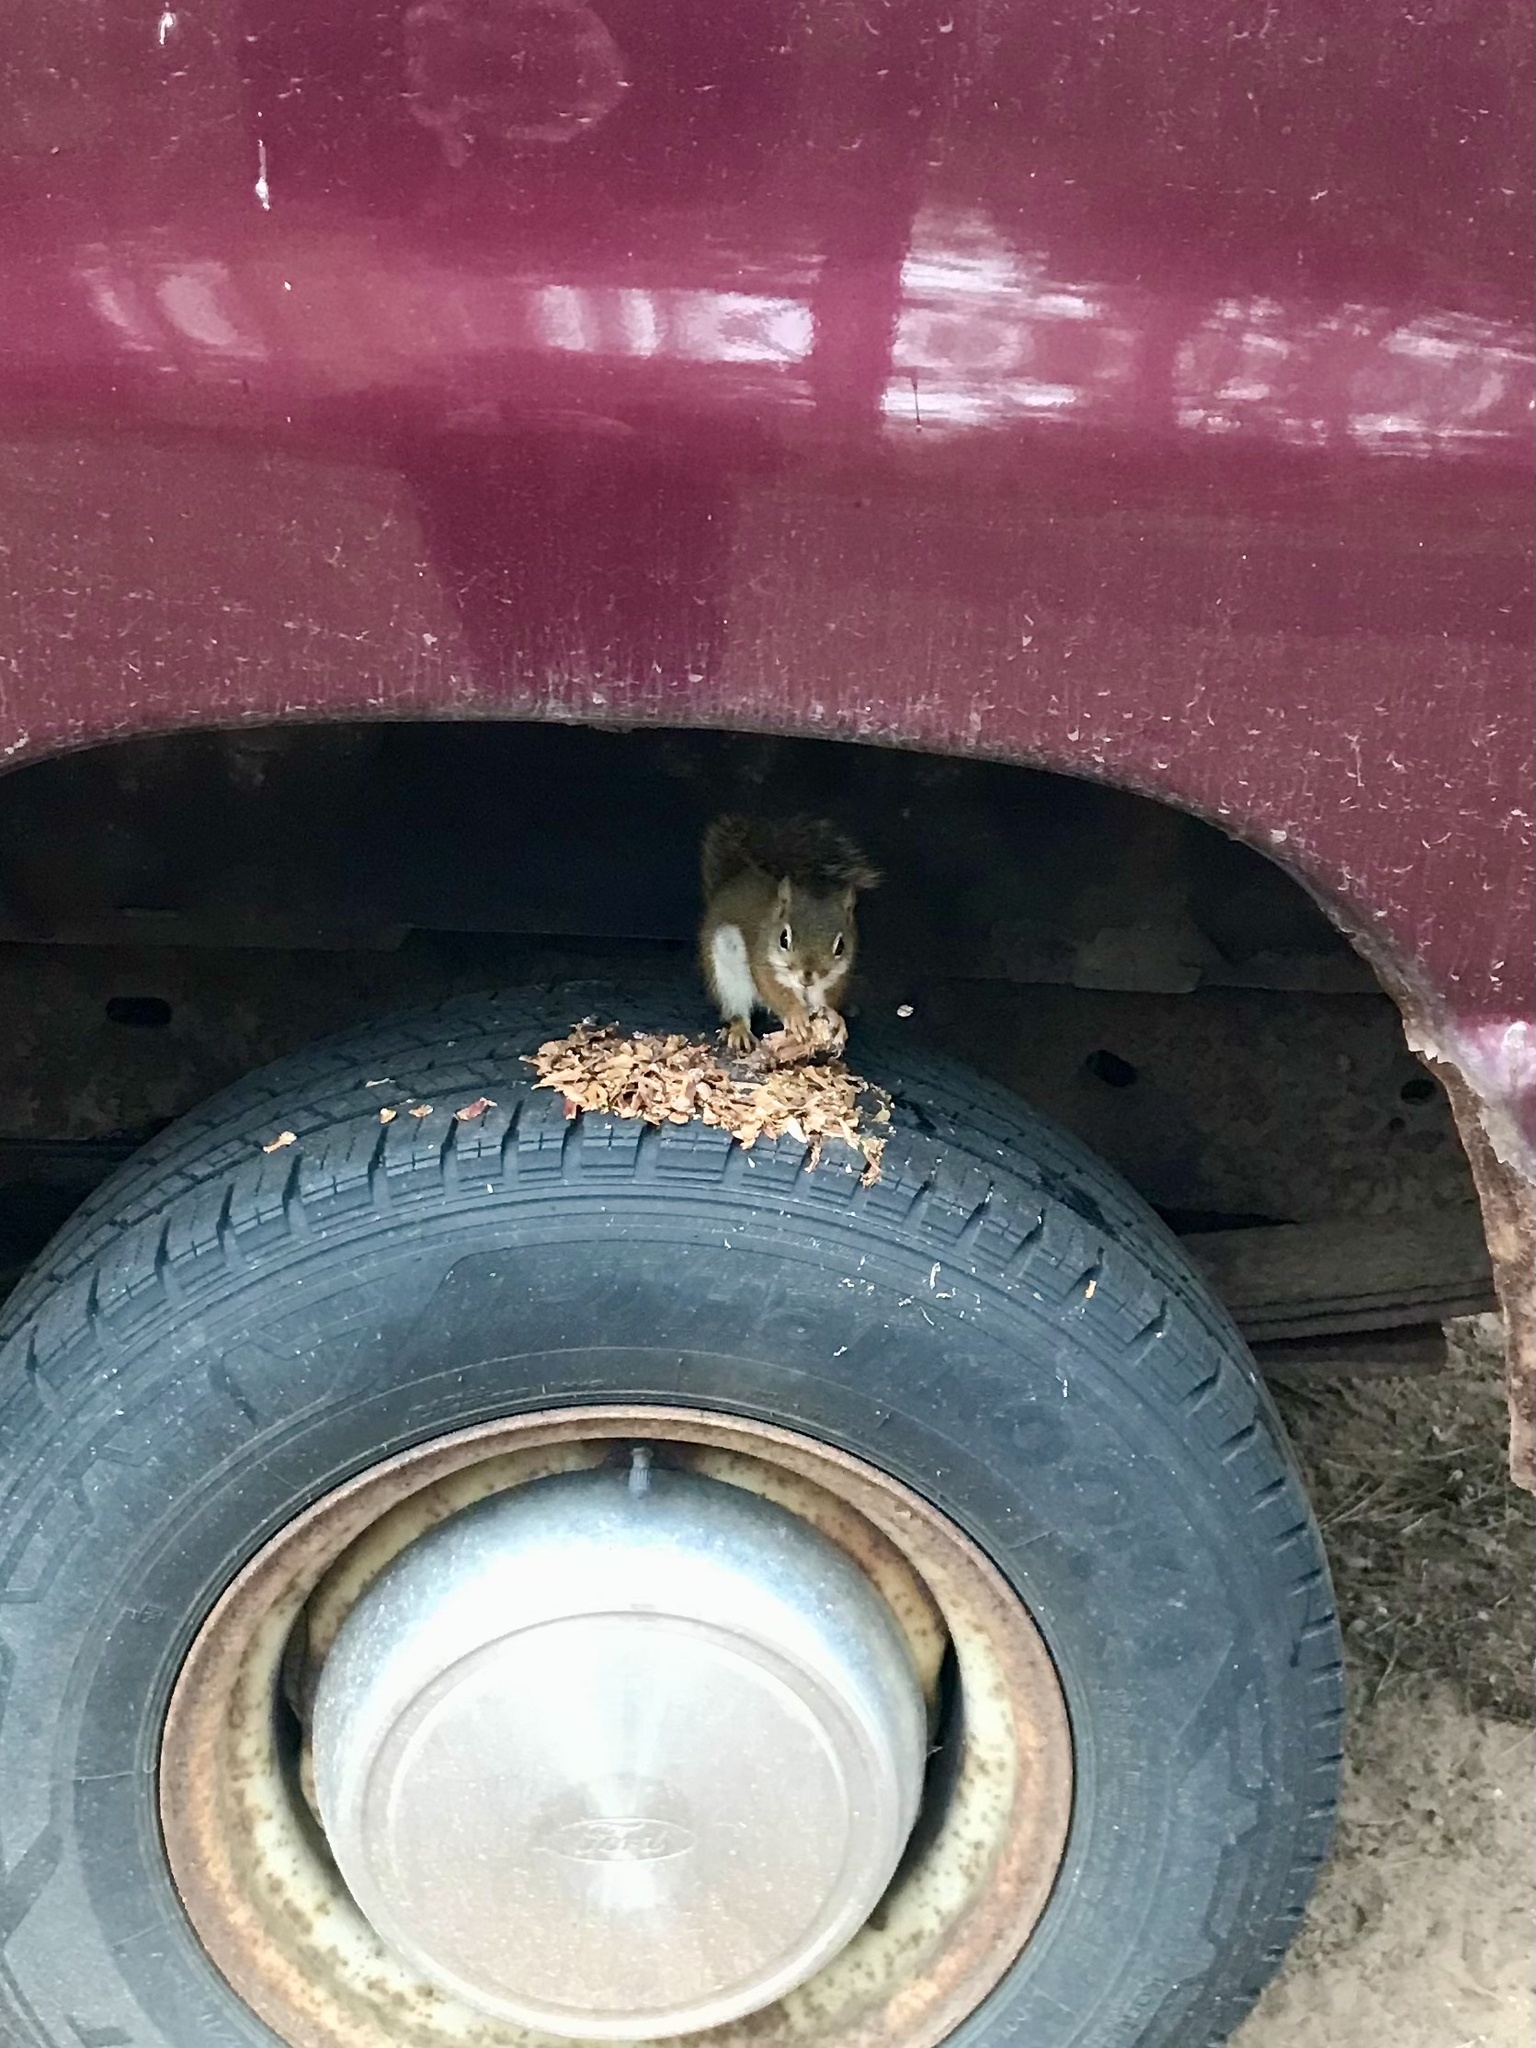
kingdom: Animalia
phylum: Chordata
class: Mammalia
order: Rodentia
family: Sciuridae
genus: Tamiasciurus
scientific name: Tamiasciurus hudsonicus
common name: Red squirrel
